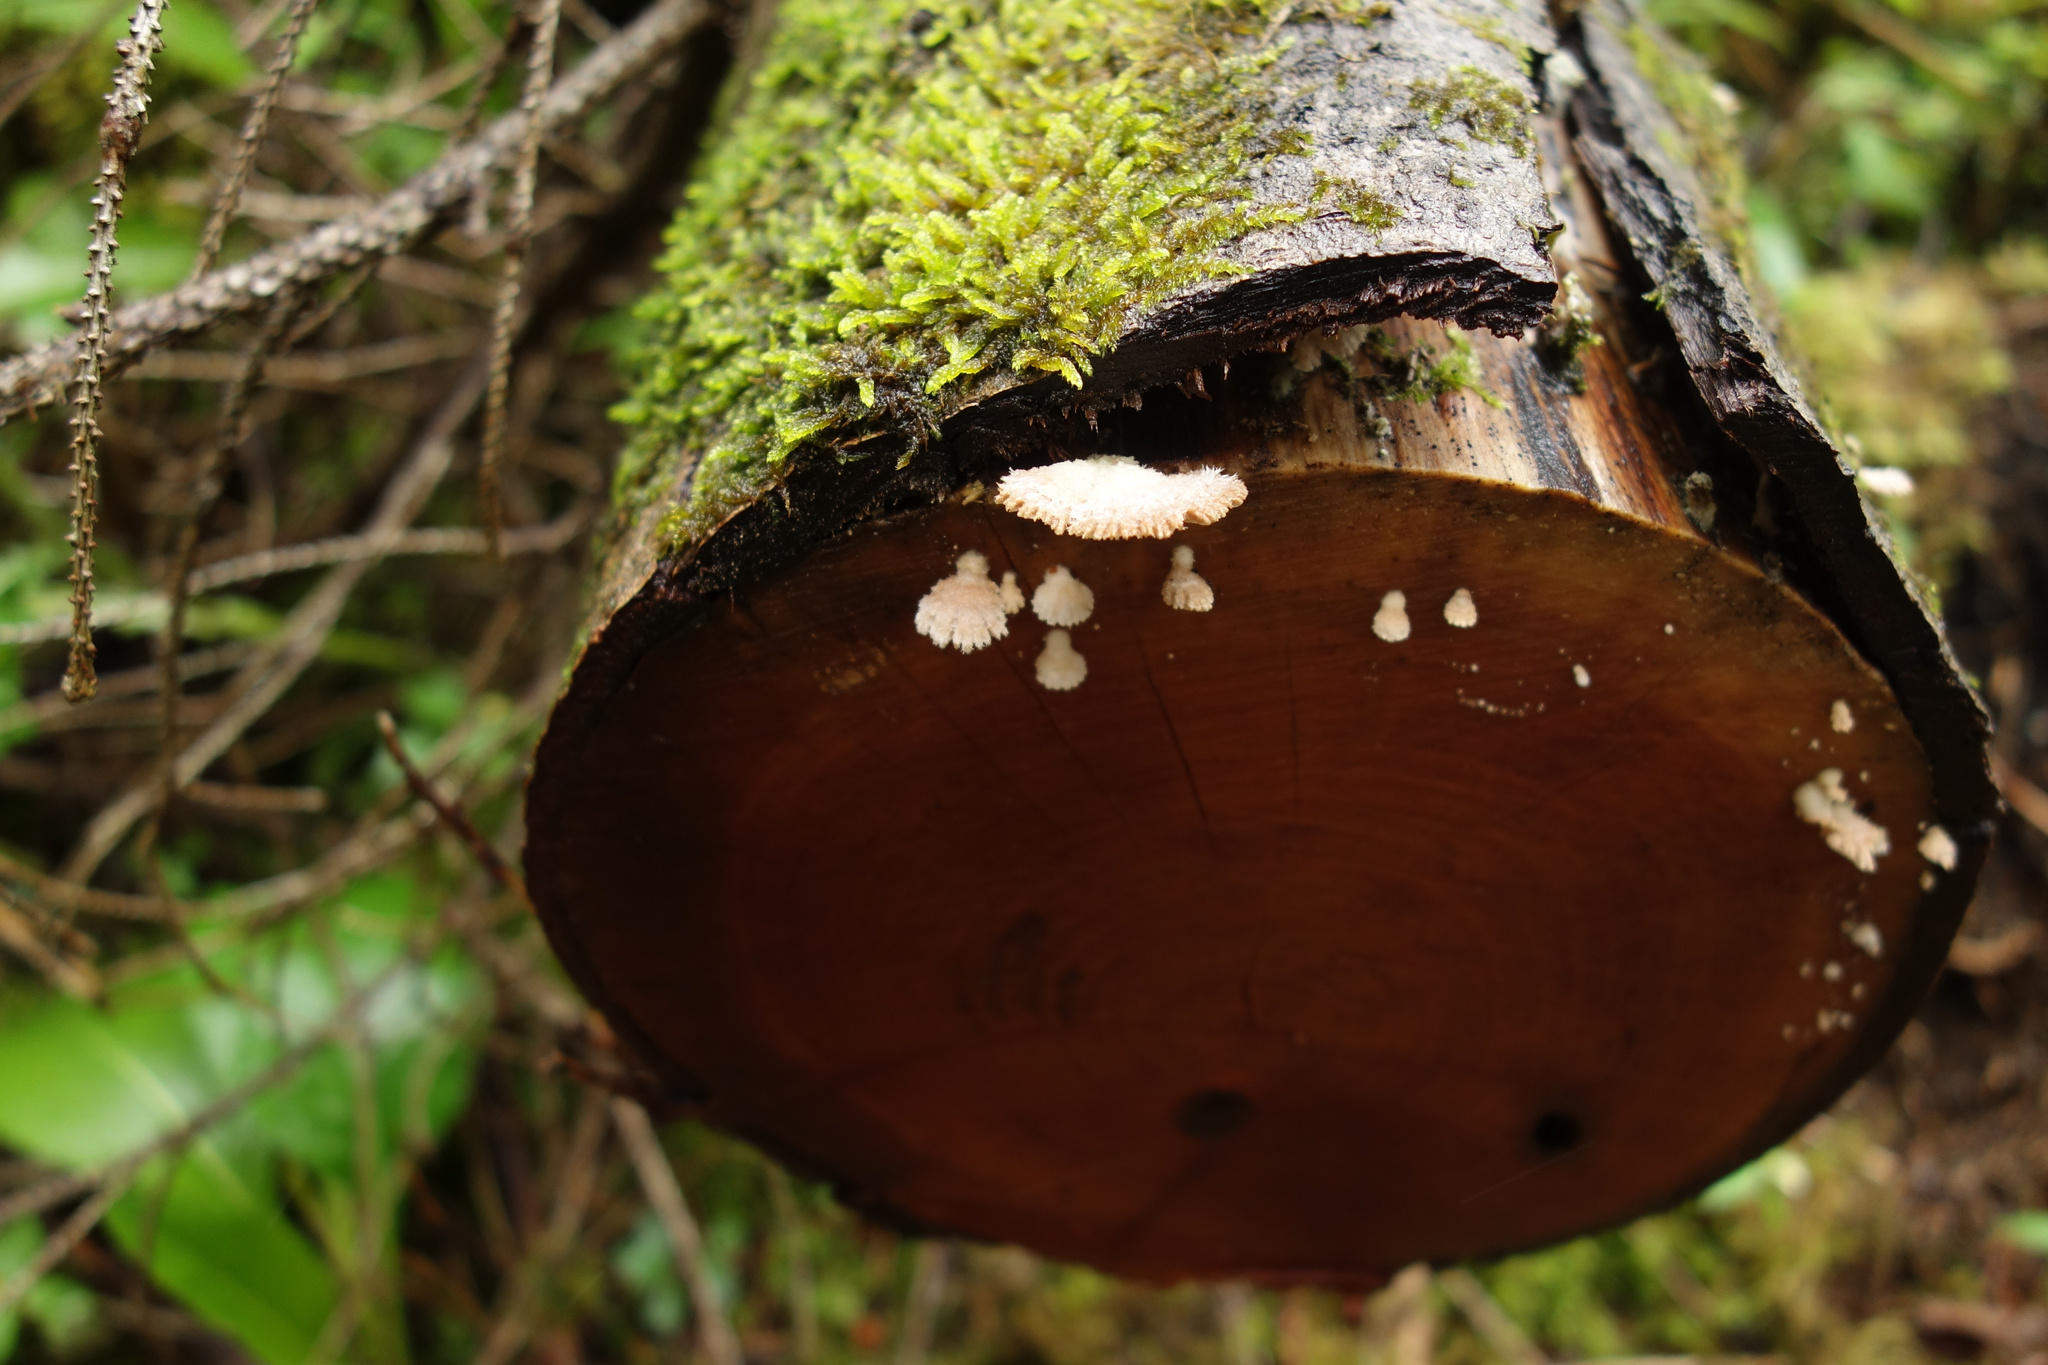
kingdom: Fungi
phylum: Basidiomycota
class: Agaricomycetes
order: Agaricales
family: Schizophyllaceae
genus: Schizophyllum
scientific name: Schizophyllum commune
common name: Common porecrust
